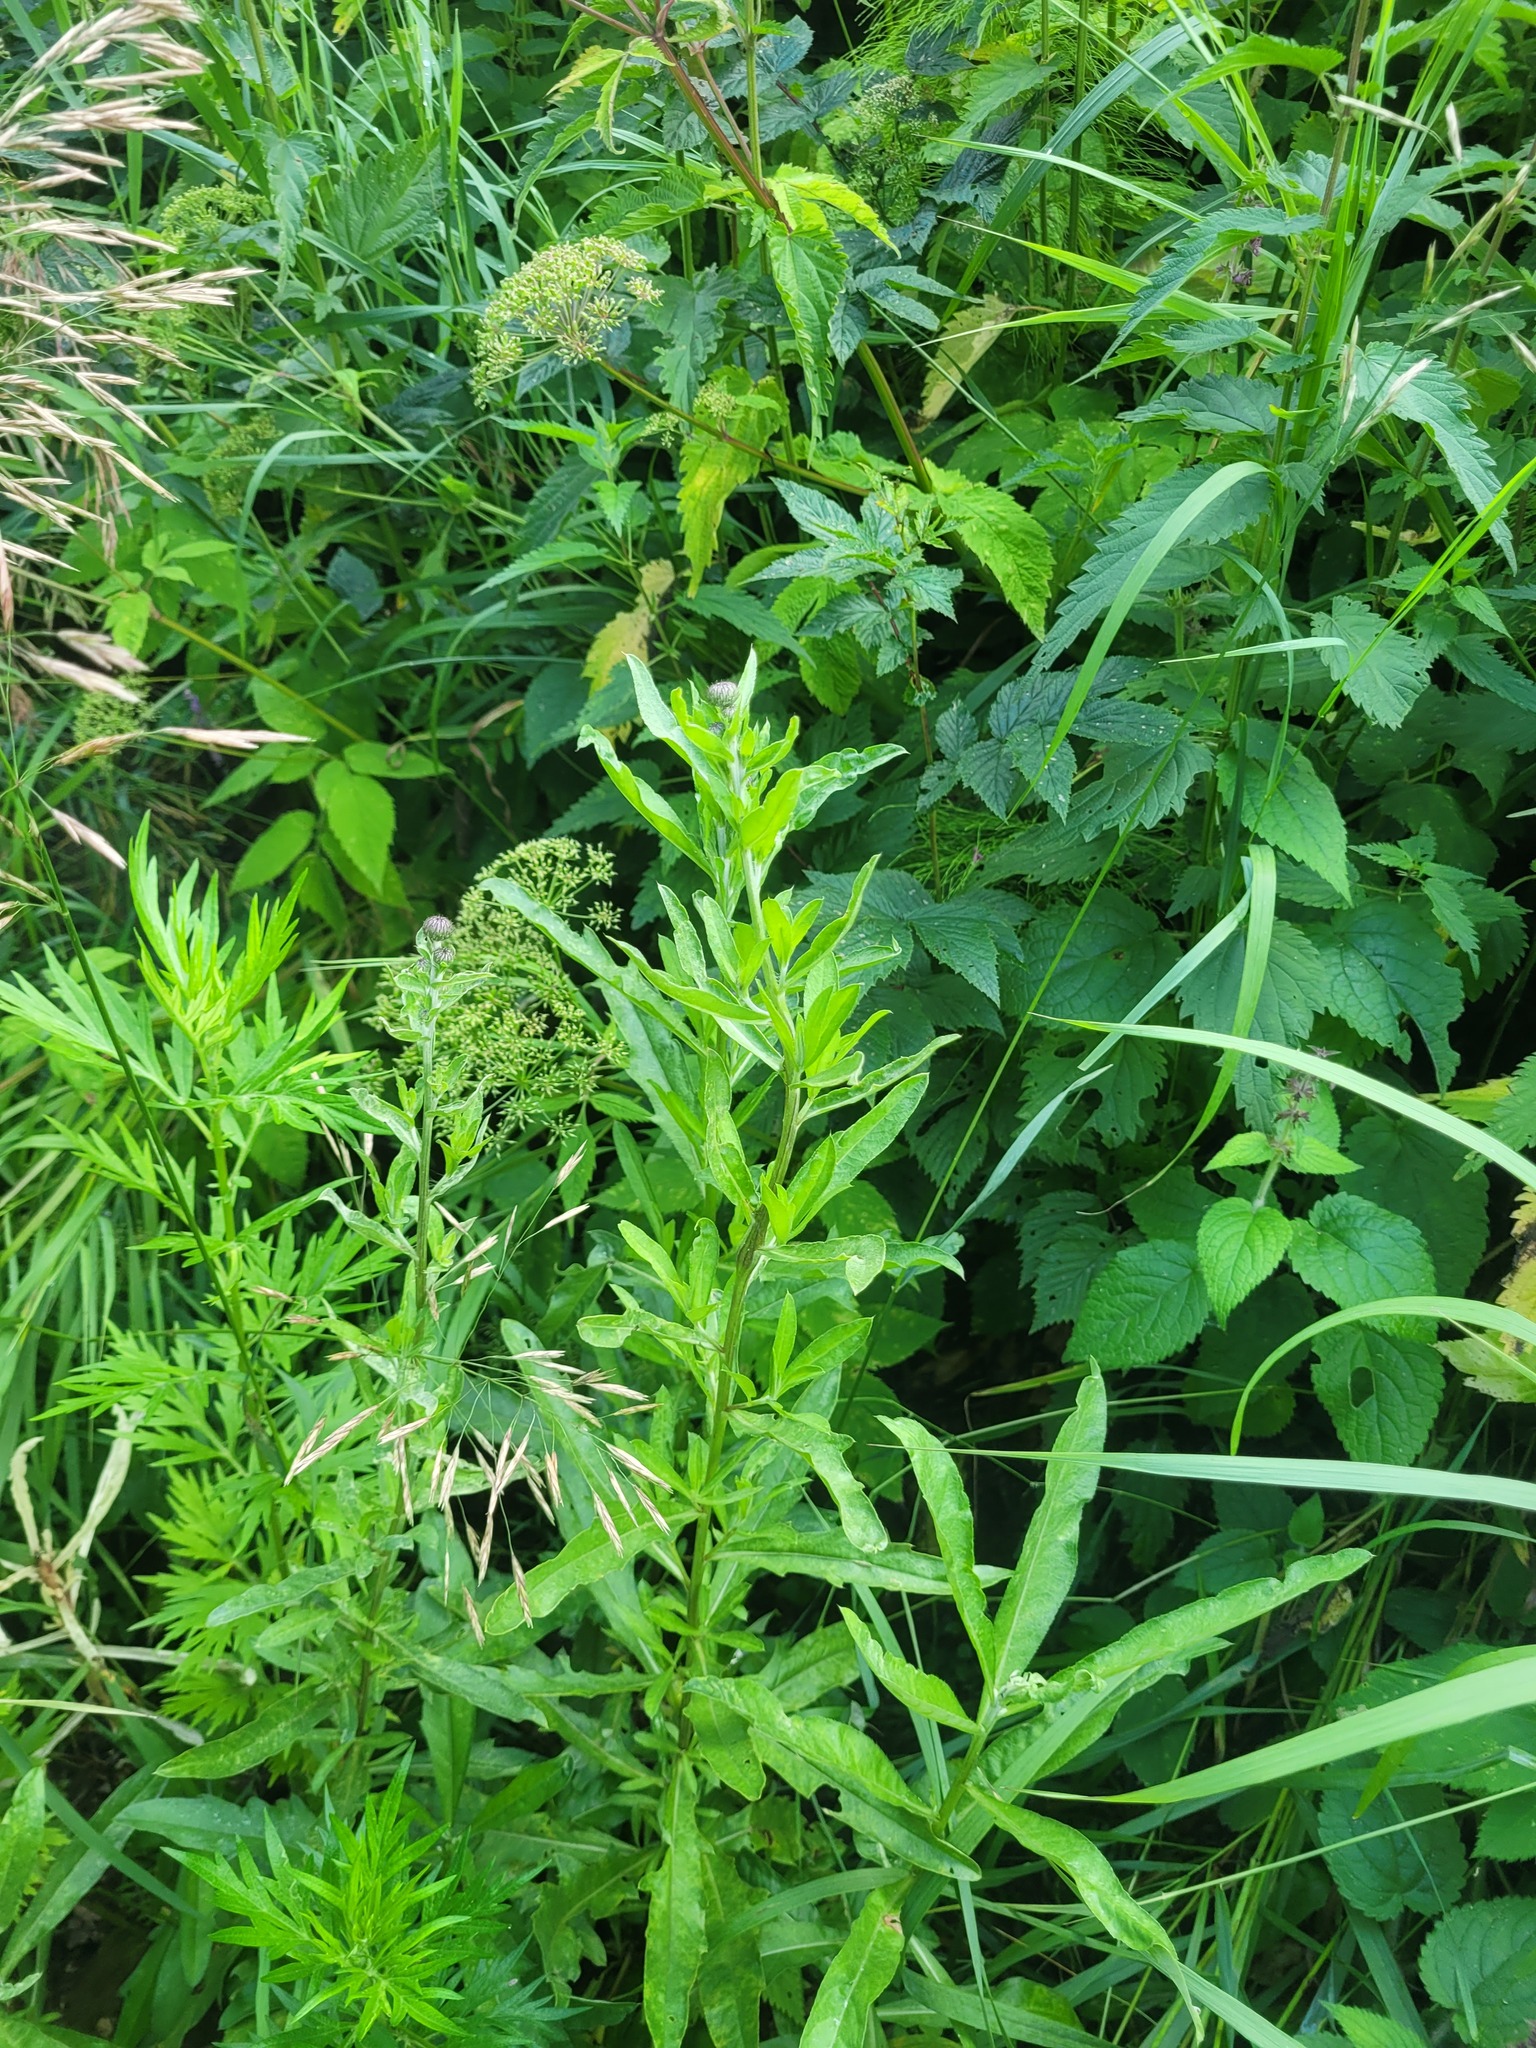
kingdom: Plantae
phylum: Tracheophyta
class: Magnoliopsida
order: Asterales
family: Asteraceae
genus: Cirsium
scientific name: Cirsium arvense
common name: Creeping thistle
